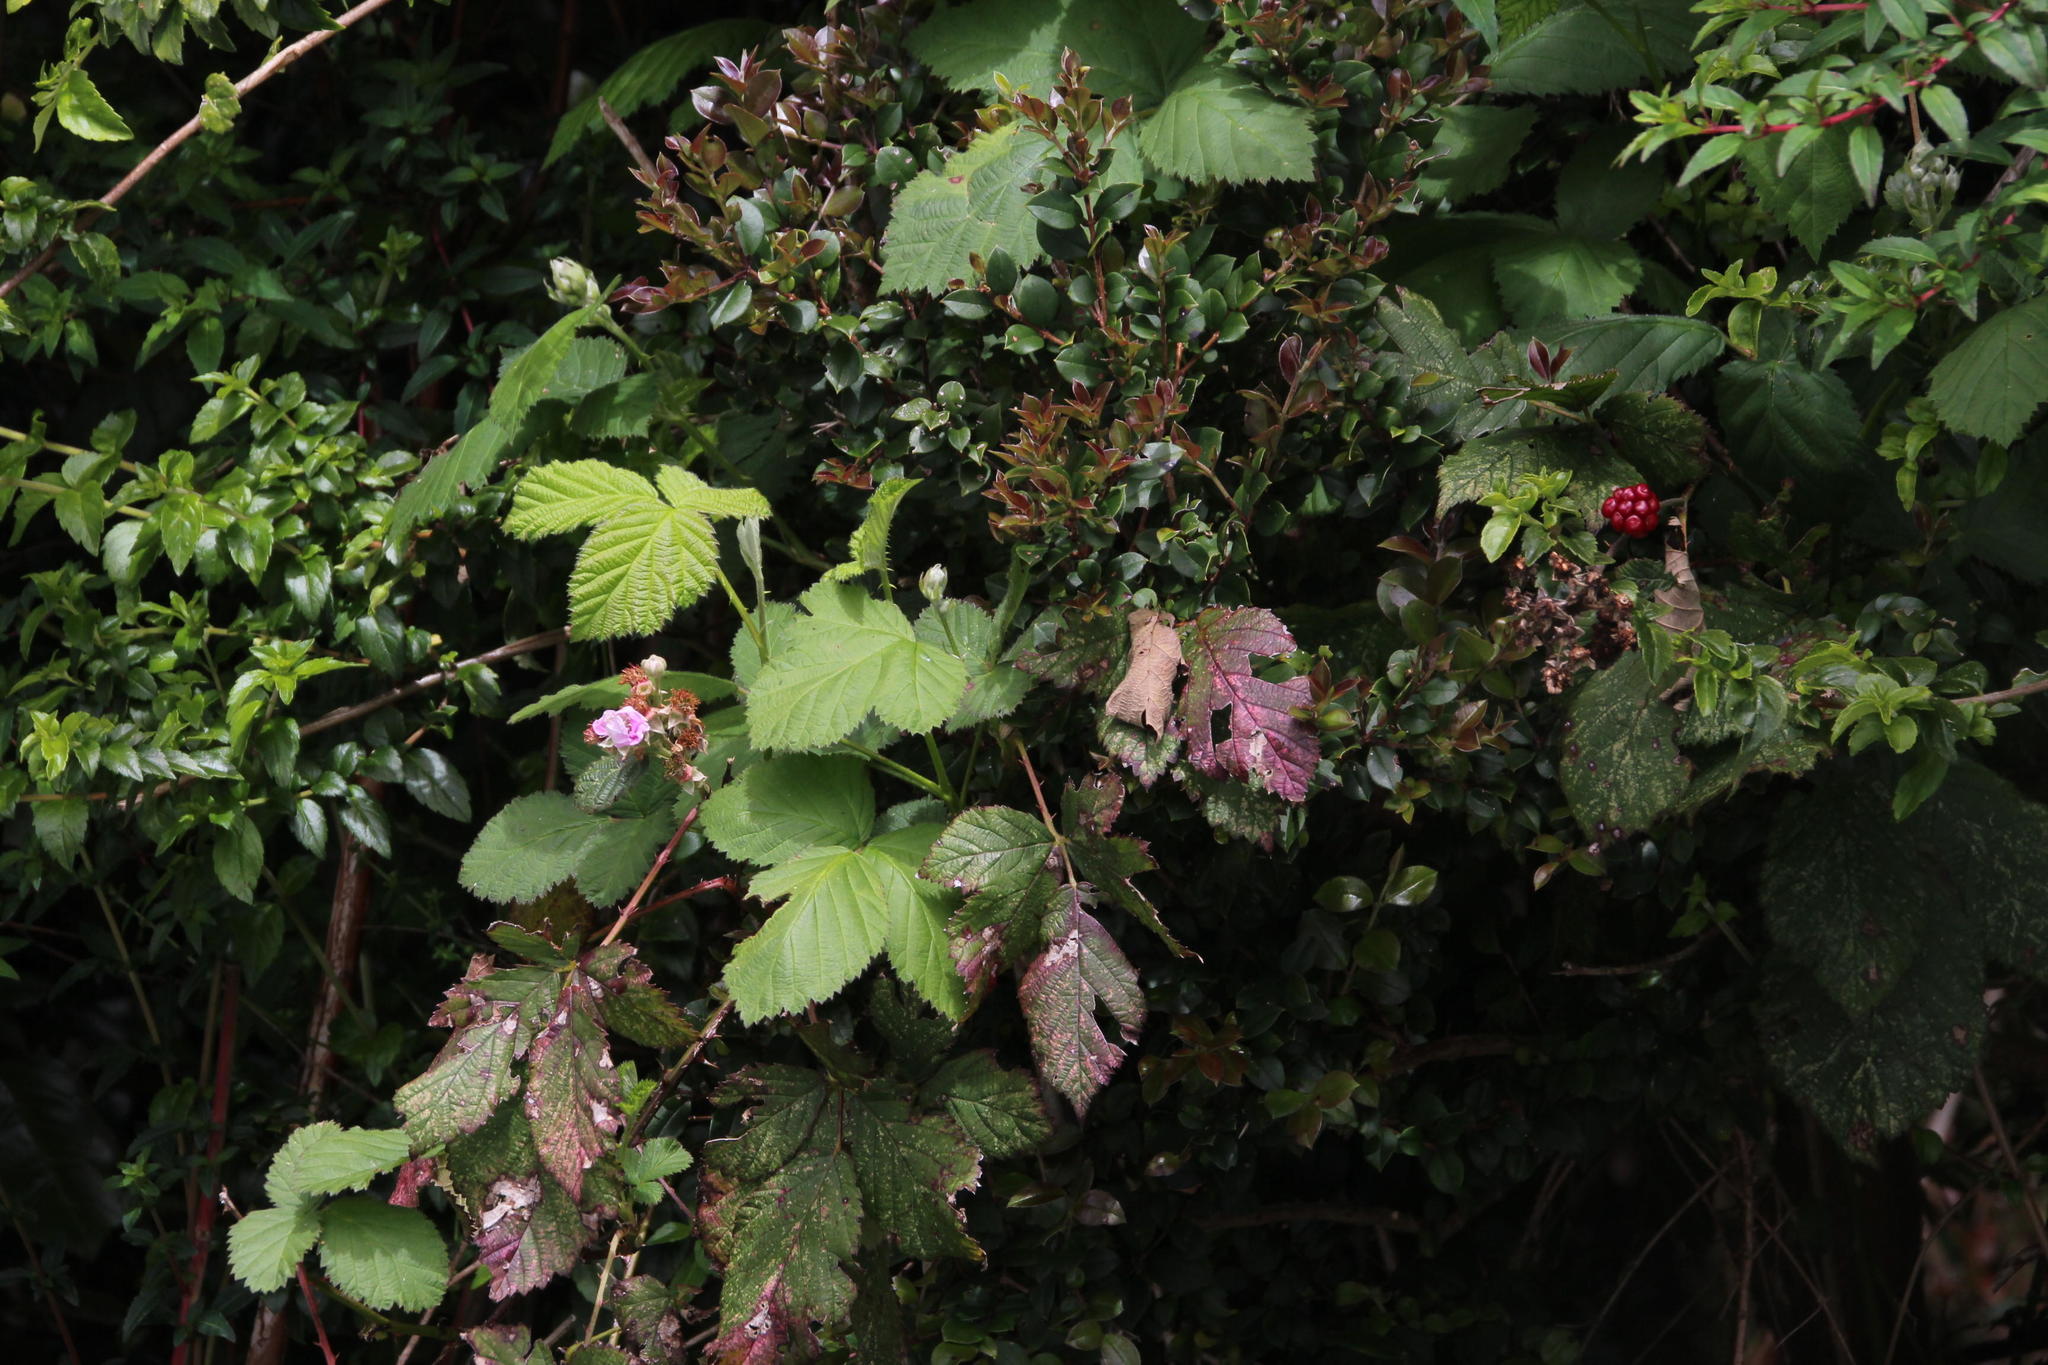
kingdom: Plantae
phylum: Tracheophyta
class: Magnoliopsida
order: Rosales
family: Rosaceae
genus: Rubus
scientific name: Rubus ulmifolius
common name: Elmleaf blackberry
